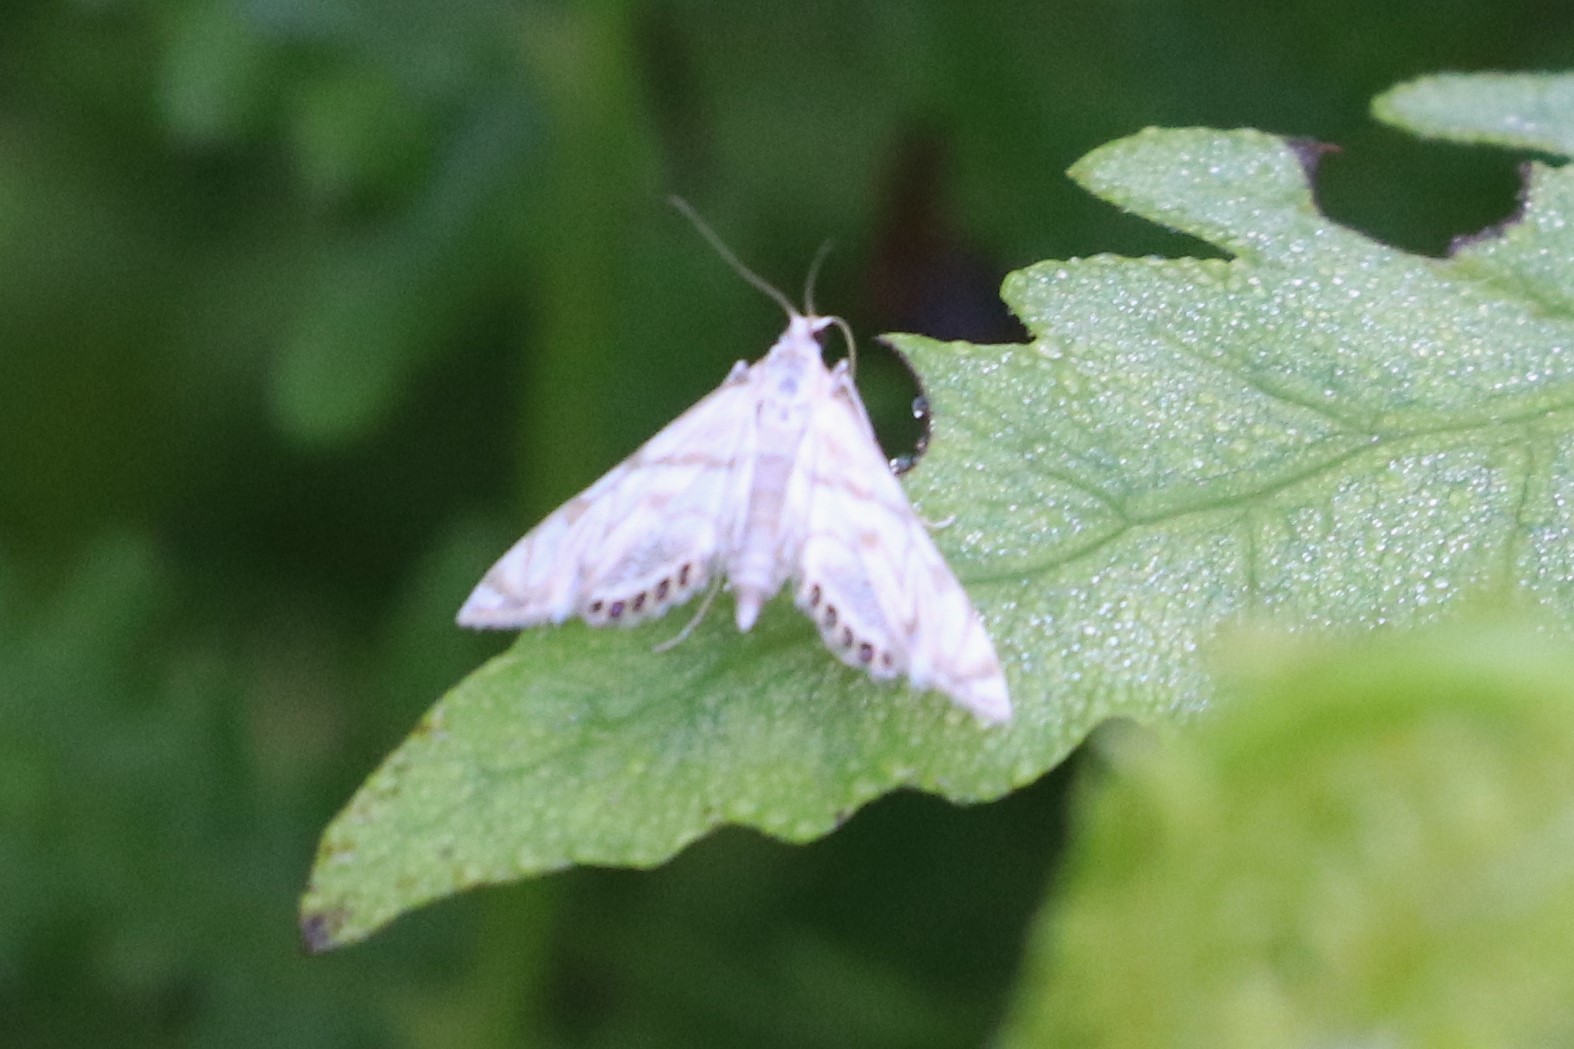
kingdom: Animalia
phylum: Arthropoda
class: Insecta
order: Lepidoptera
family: Crambidae
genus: Neocataclysta
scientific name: Neocataclysta magnificalis
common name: Scrollwork pyralid moth
